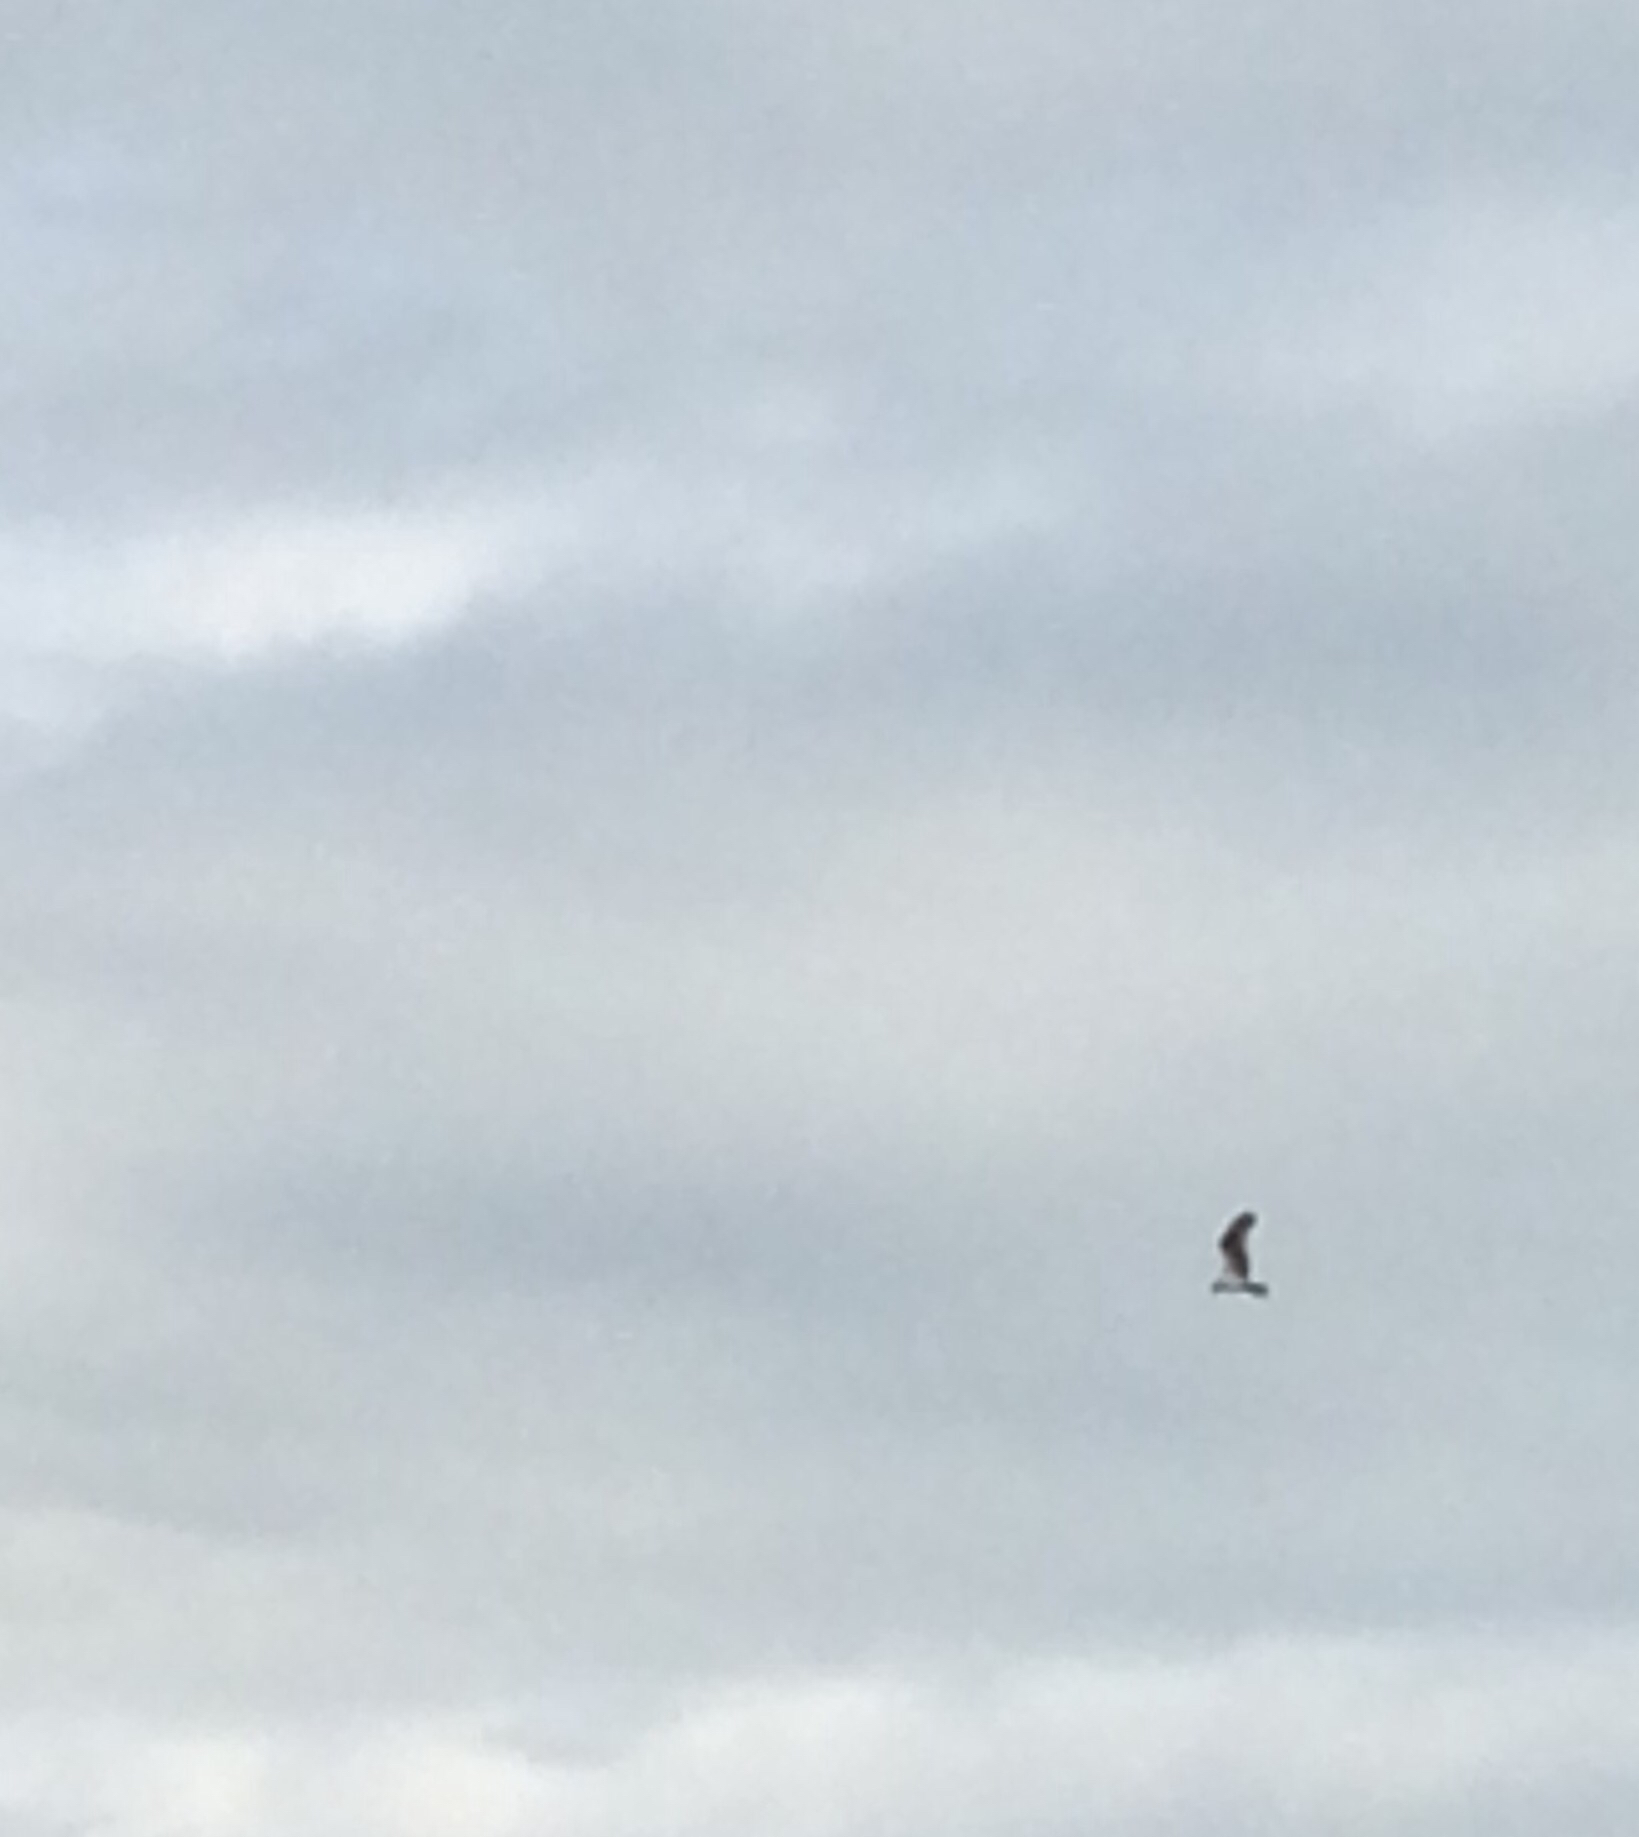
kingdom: Animalia
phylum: Chordata
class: Aves
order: Accipitriformes
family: Pandionidae
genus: Pandion
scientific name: Pandion haliaetus
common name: Osprey
